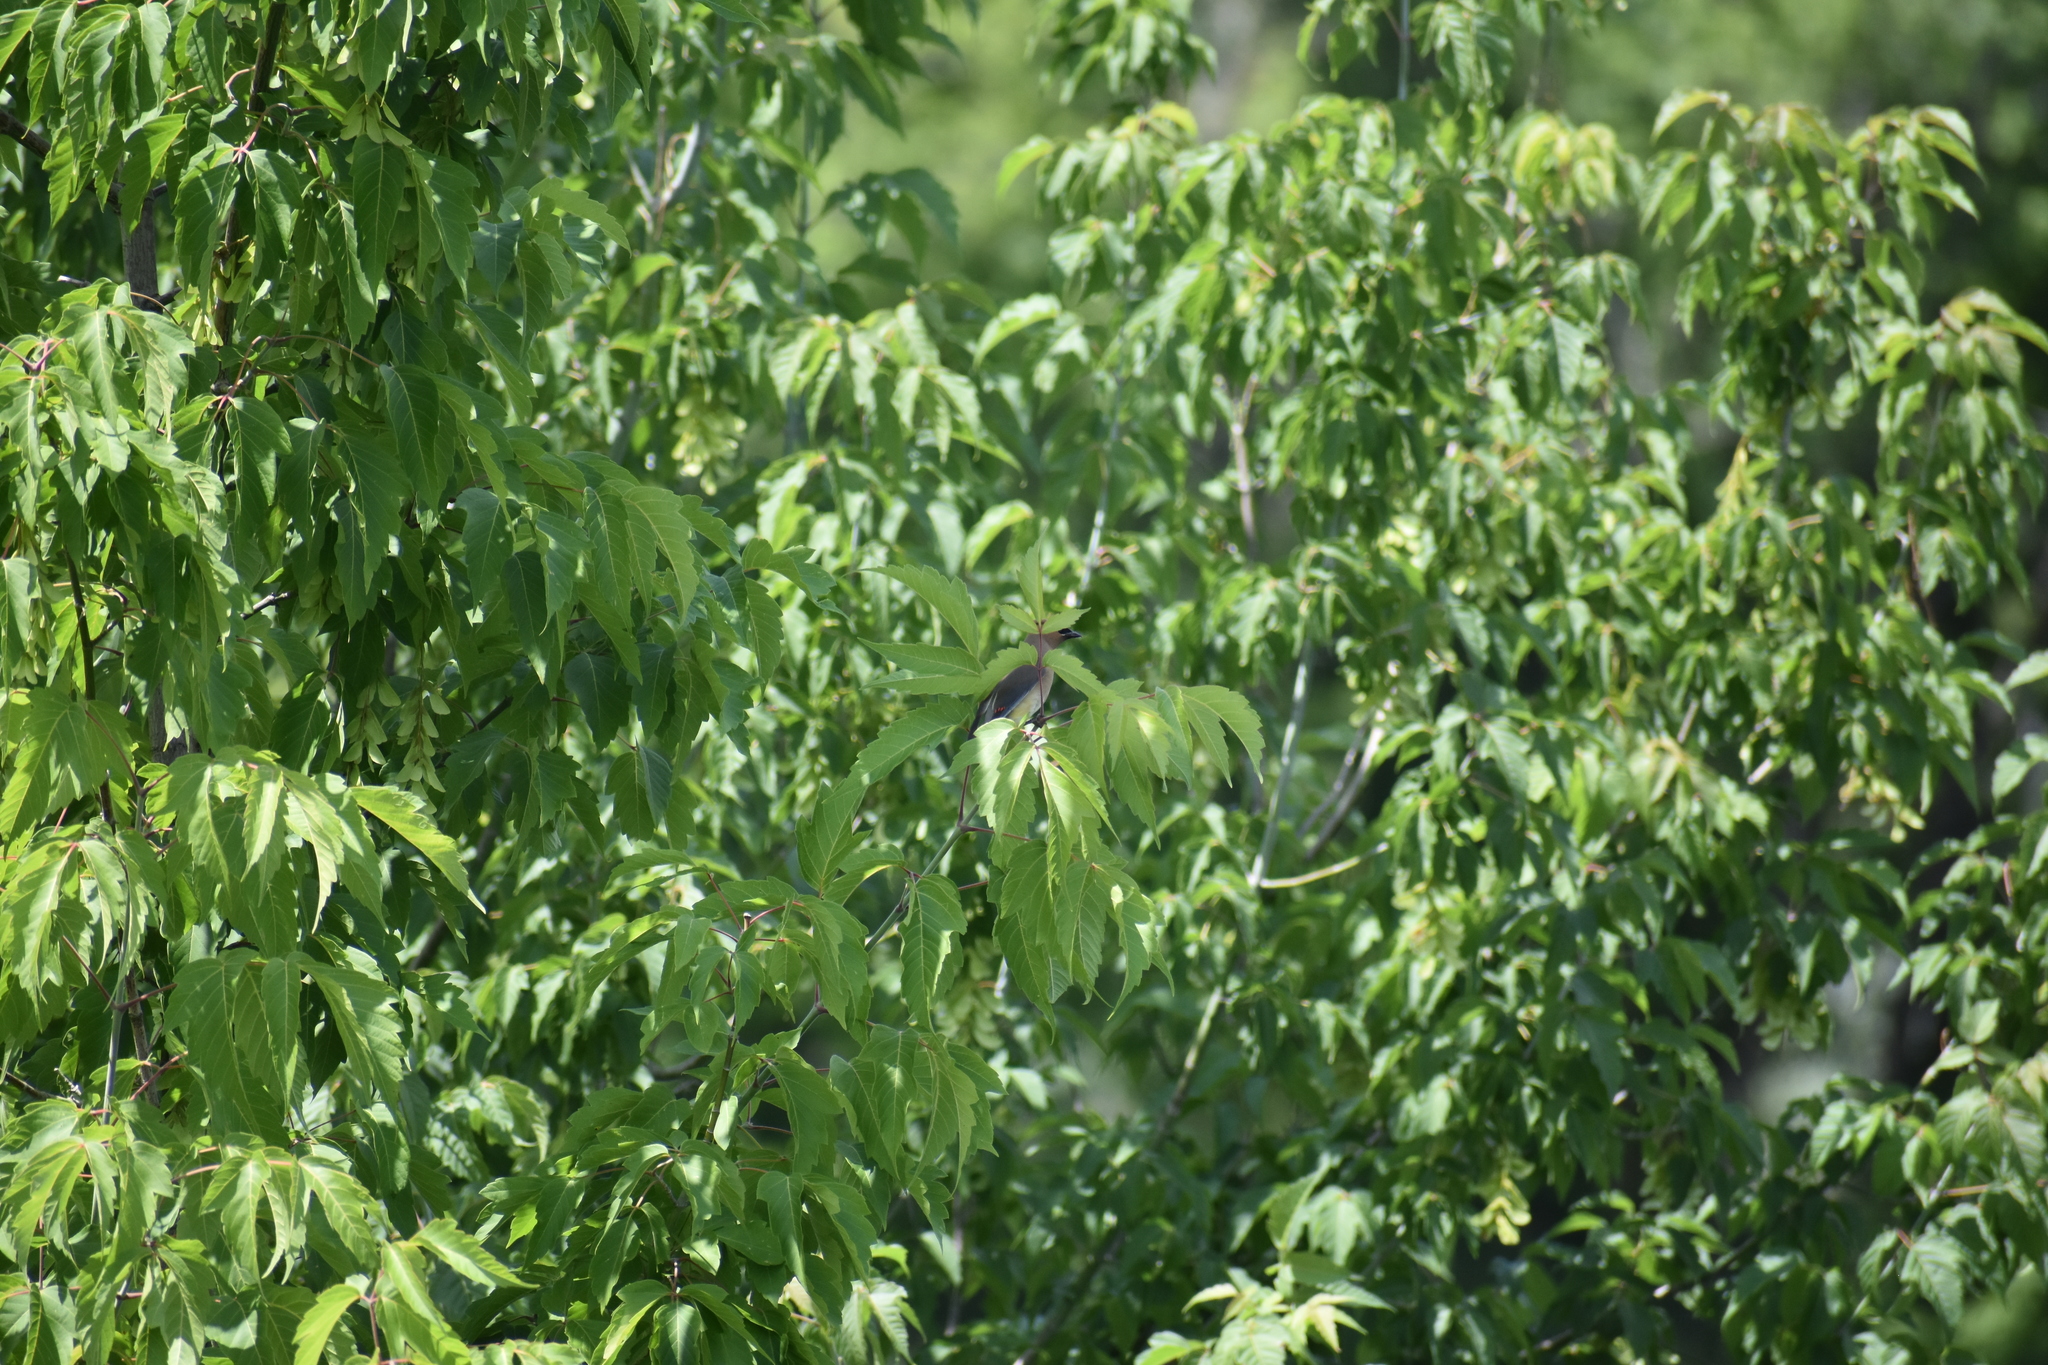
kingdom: Animalia
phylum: Chordata
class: Aves
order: Passeriformes
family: Bombycillidae
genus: Bombycilla
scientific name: Bombycilla cedrorum
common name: Cedar waxwing
